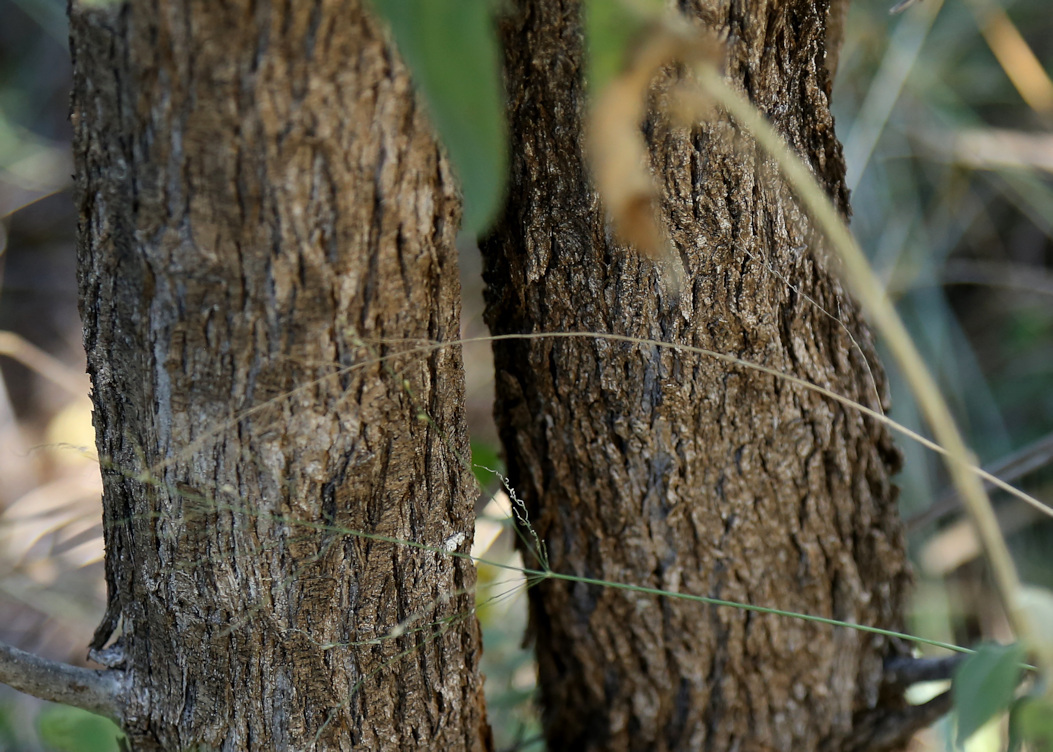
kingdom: Plantae
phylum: Tracheophyta
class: Magnoliopsida
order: Gentianales
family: Rubiaceae
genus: Plectroniella
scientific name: Plectroniella armata
